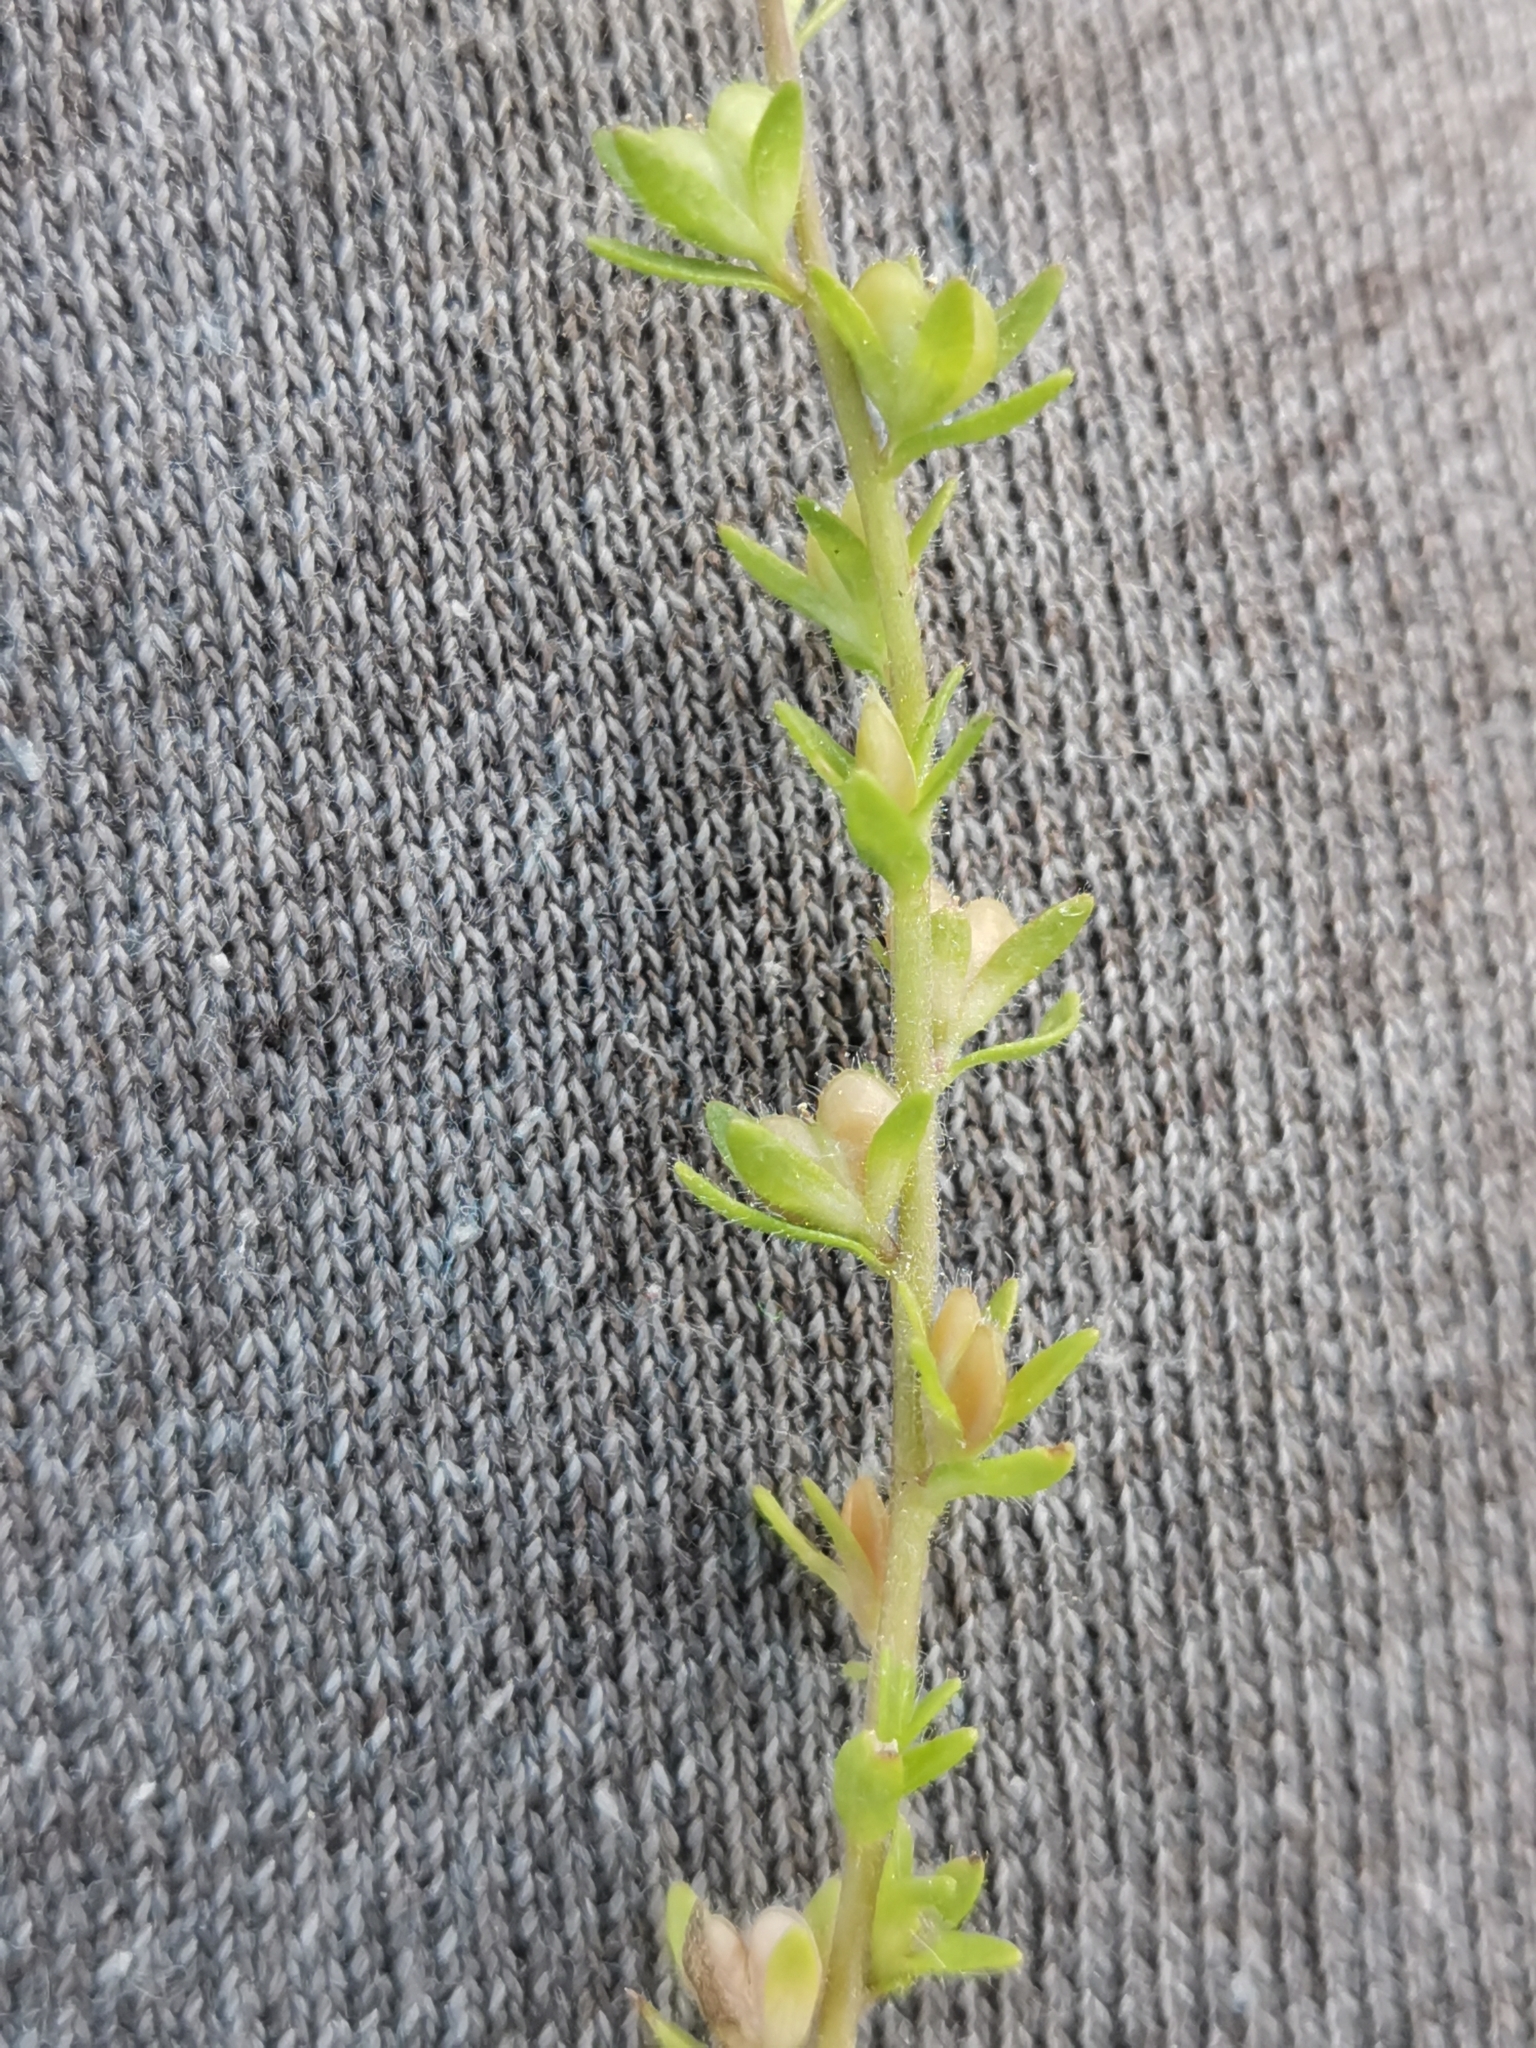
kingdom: Plantae
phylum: Tracheophyta
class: Magnoliopsida
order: Lamiales
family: Plantaginaceae
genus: Veronica
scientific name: Veronica arvensis
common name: Corn speedwell
